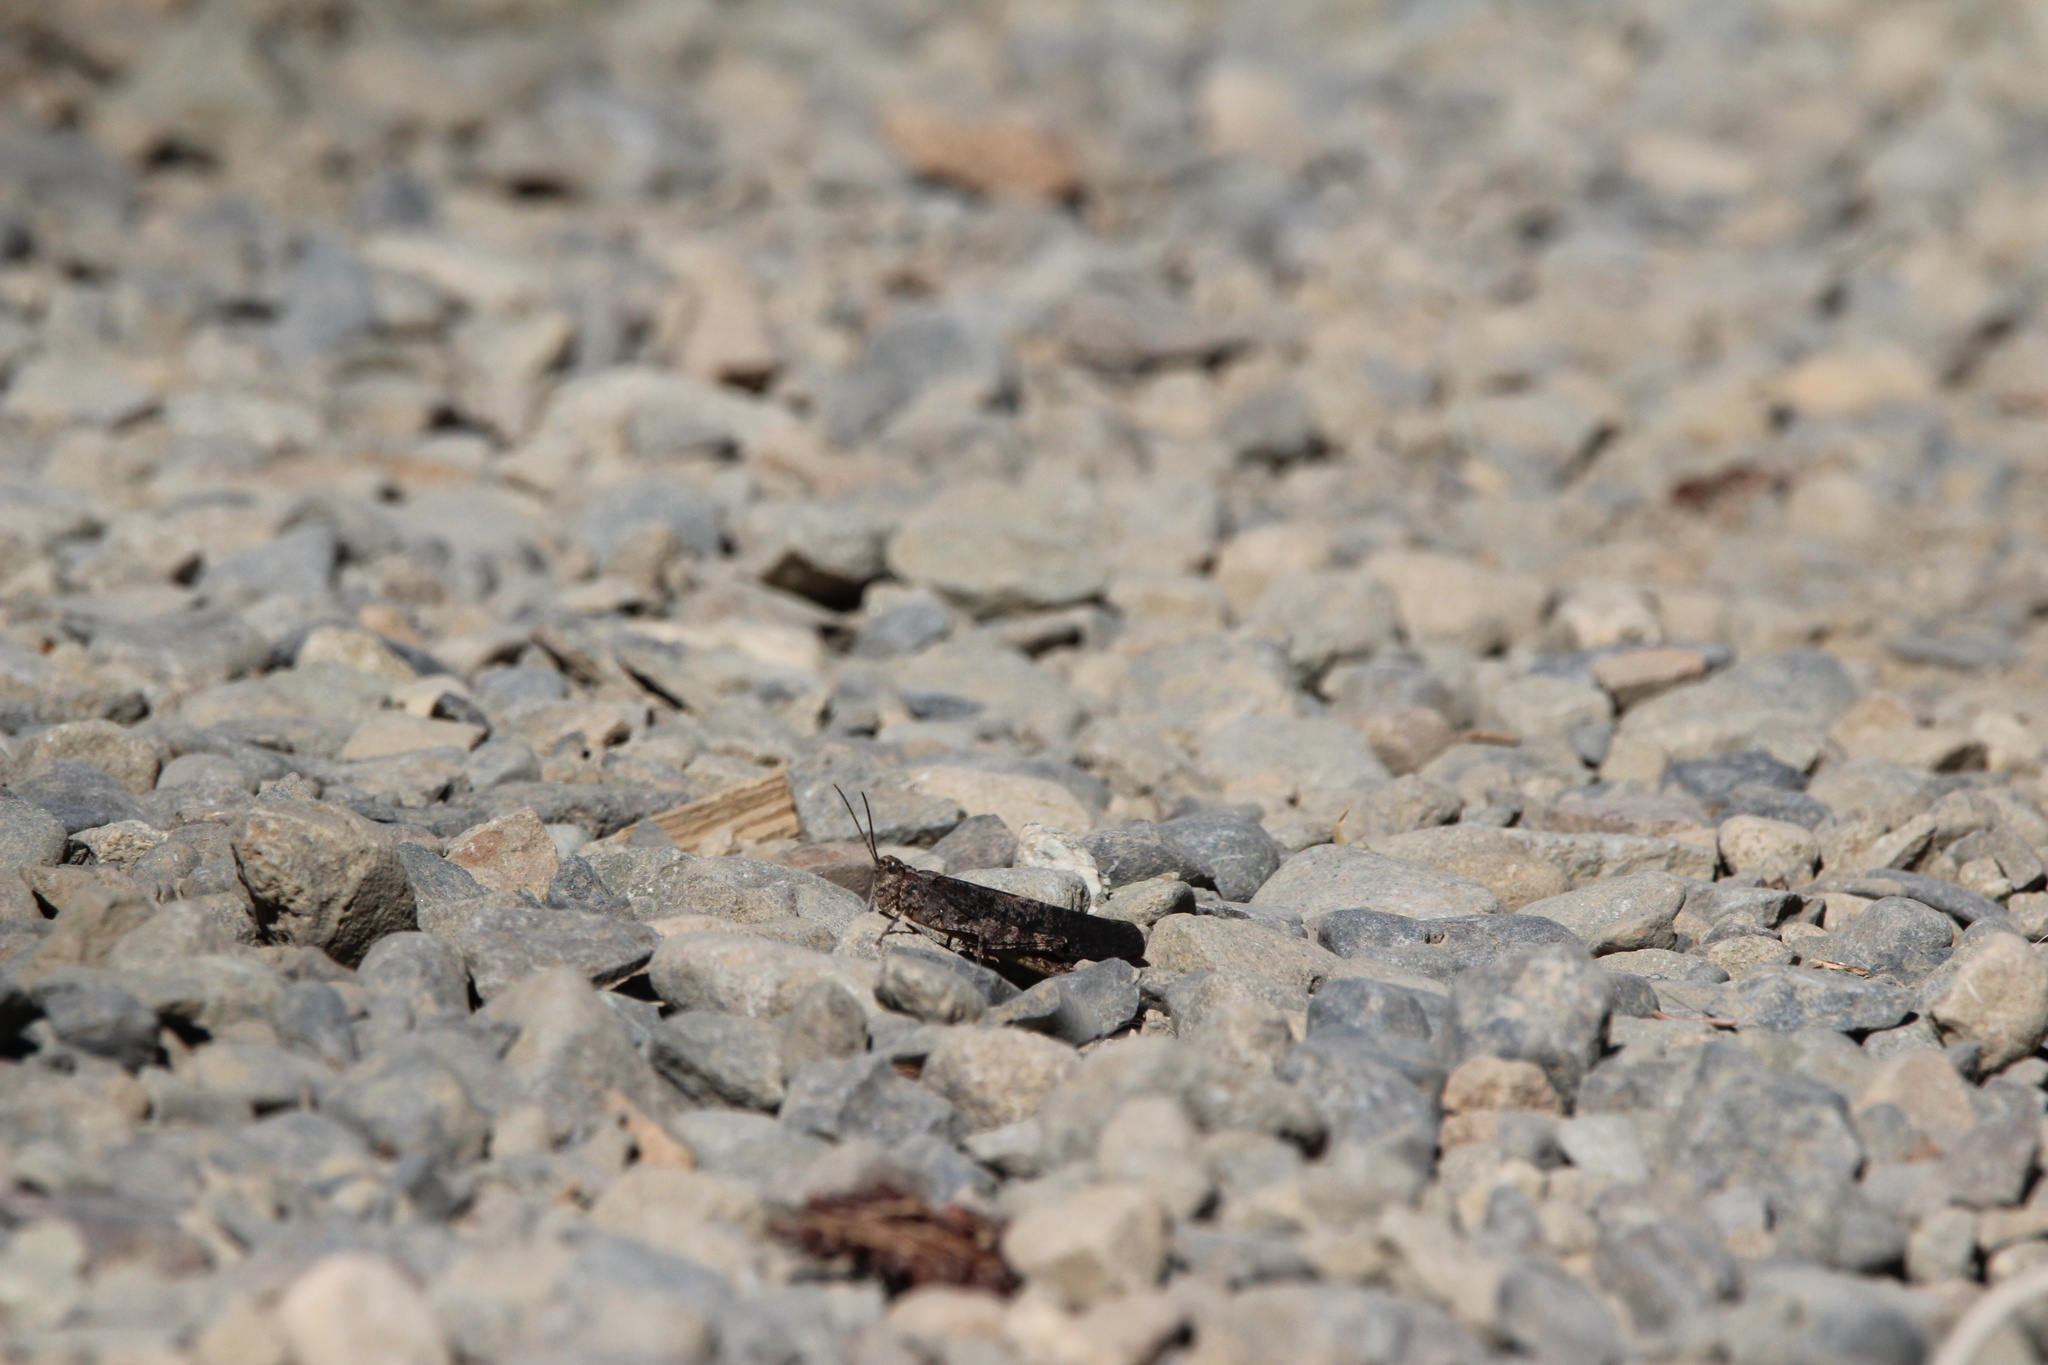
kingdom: Animalia
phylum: Arthropoda
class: Insecta
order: Orthoptera
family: Acrididae
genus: Trimerotropis
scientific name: Trimerotropis verruculata
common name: Crackling forest grasshopper
